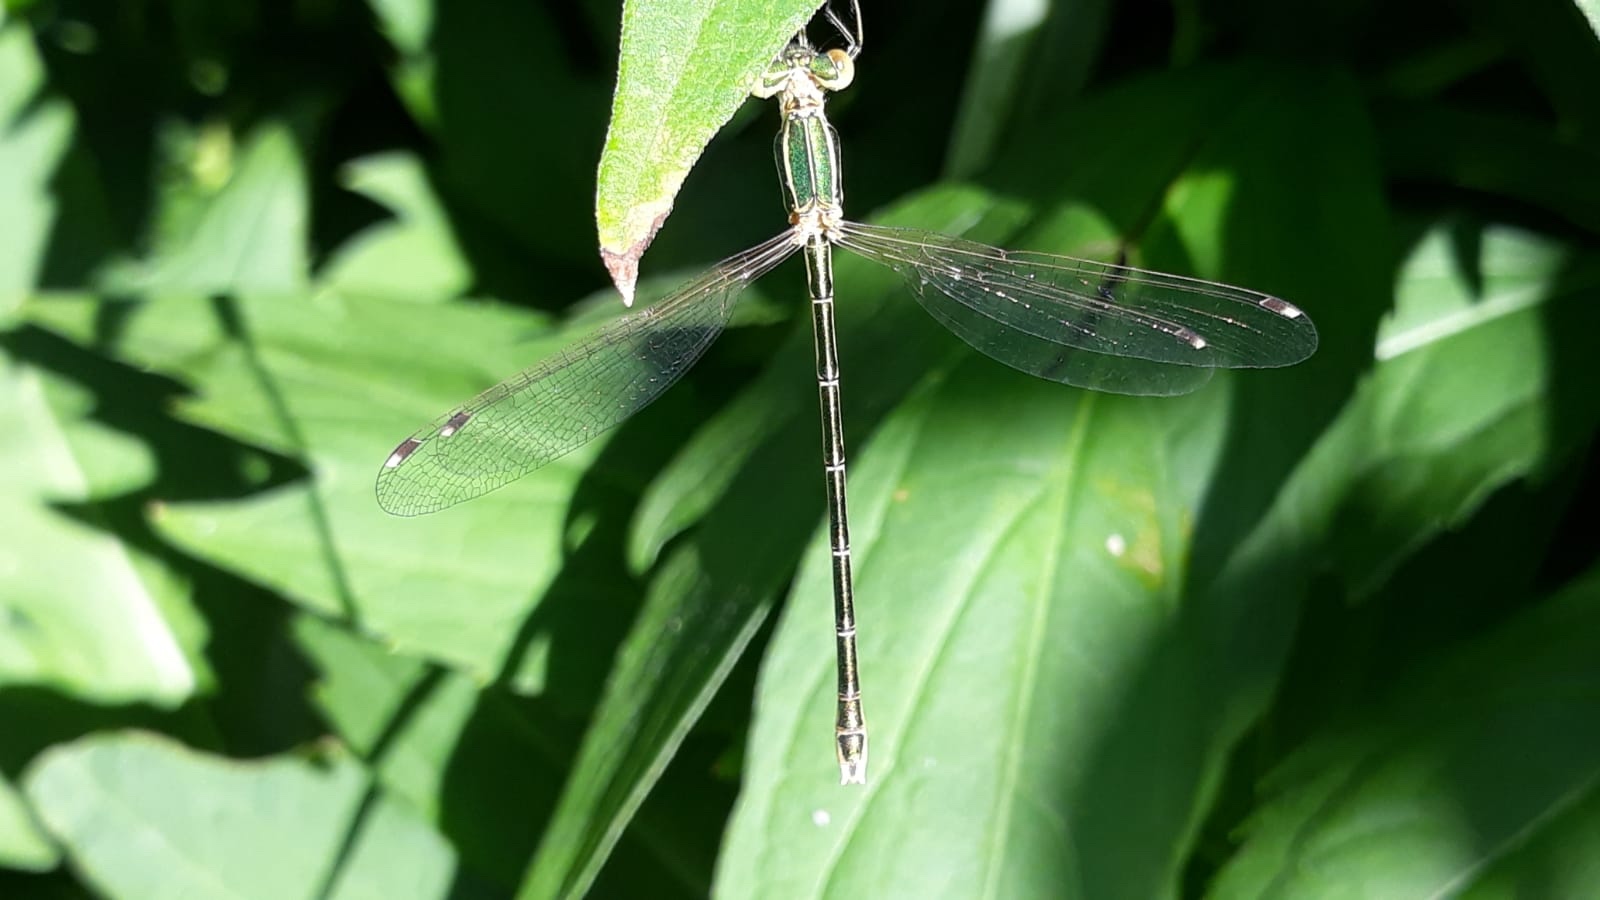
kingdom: Animalia
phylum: Arthropoda
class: Insecta
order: Odonata
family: Lestidae
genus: Lestes
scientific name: Lestes barbarus
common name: Migrant spreadwing
